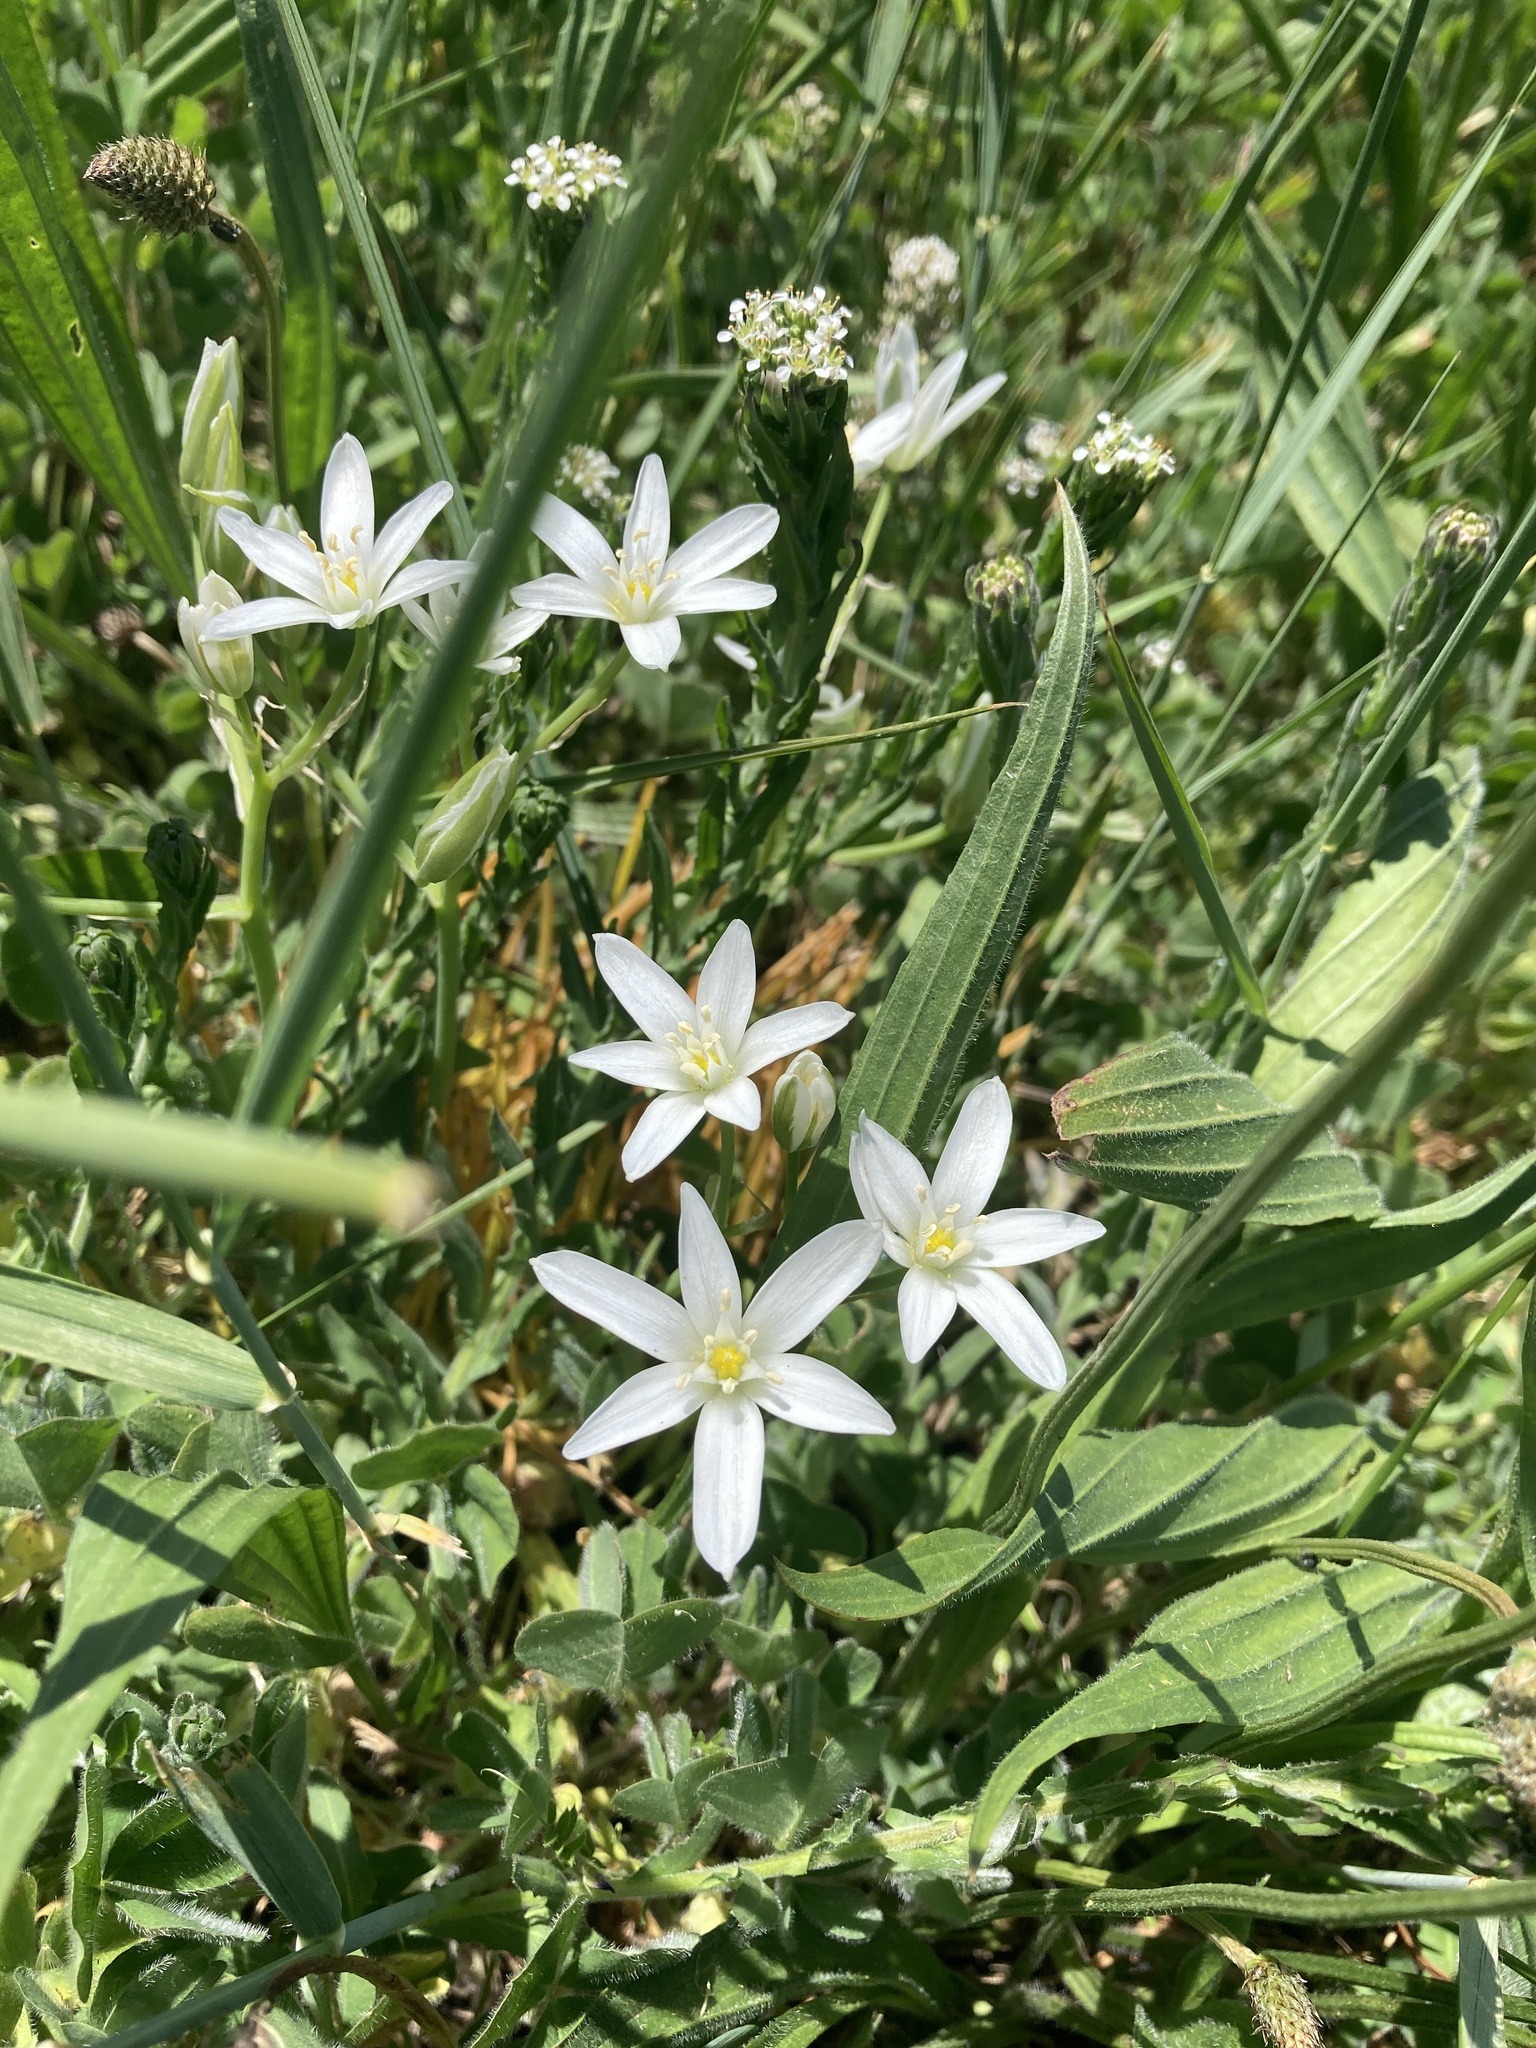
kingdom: Plantae
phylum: Tracheophyta
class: Liliopsida
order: Asparagales
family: Asparagaceae
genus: Ornithogalum
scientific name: Ornithogalum umbellatum
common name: Garden star-of-bethlehem
